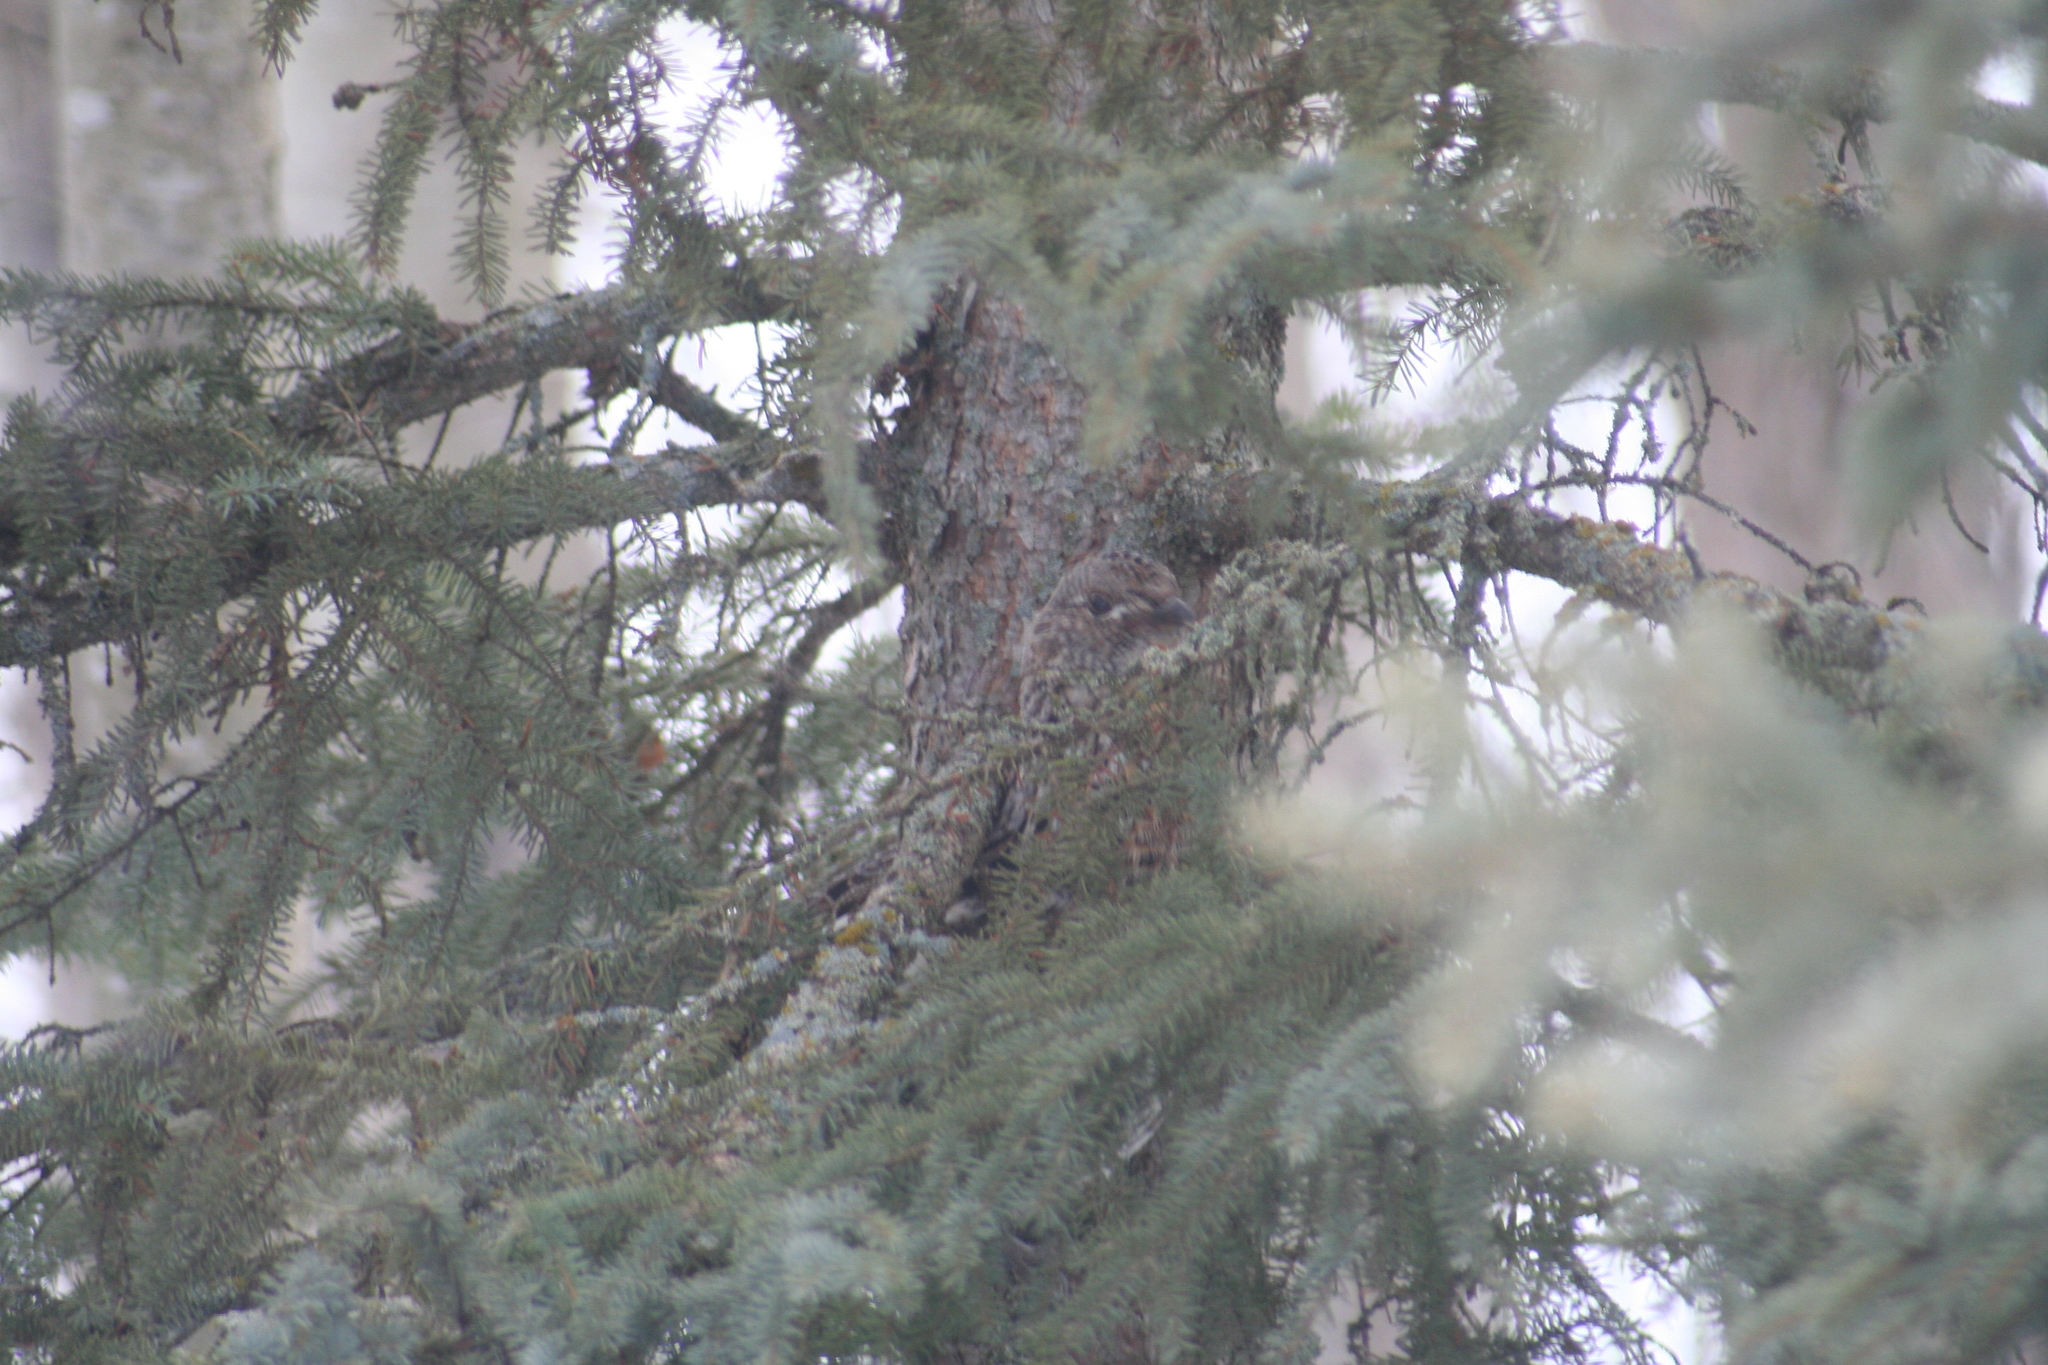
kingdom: Animalia
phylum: Chordata
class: Aves
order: Galliformes
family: Phasianidae
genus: Bonasa
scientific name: Bonasa umbellus
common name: Ruffed grouse
